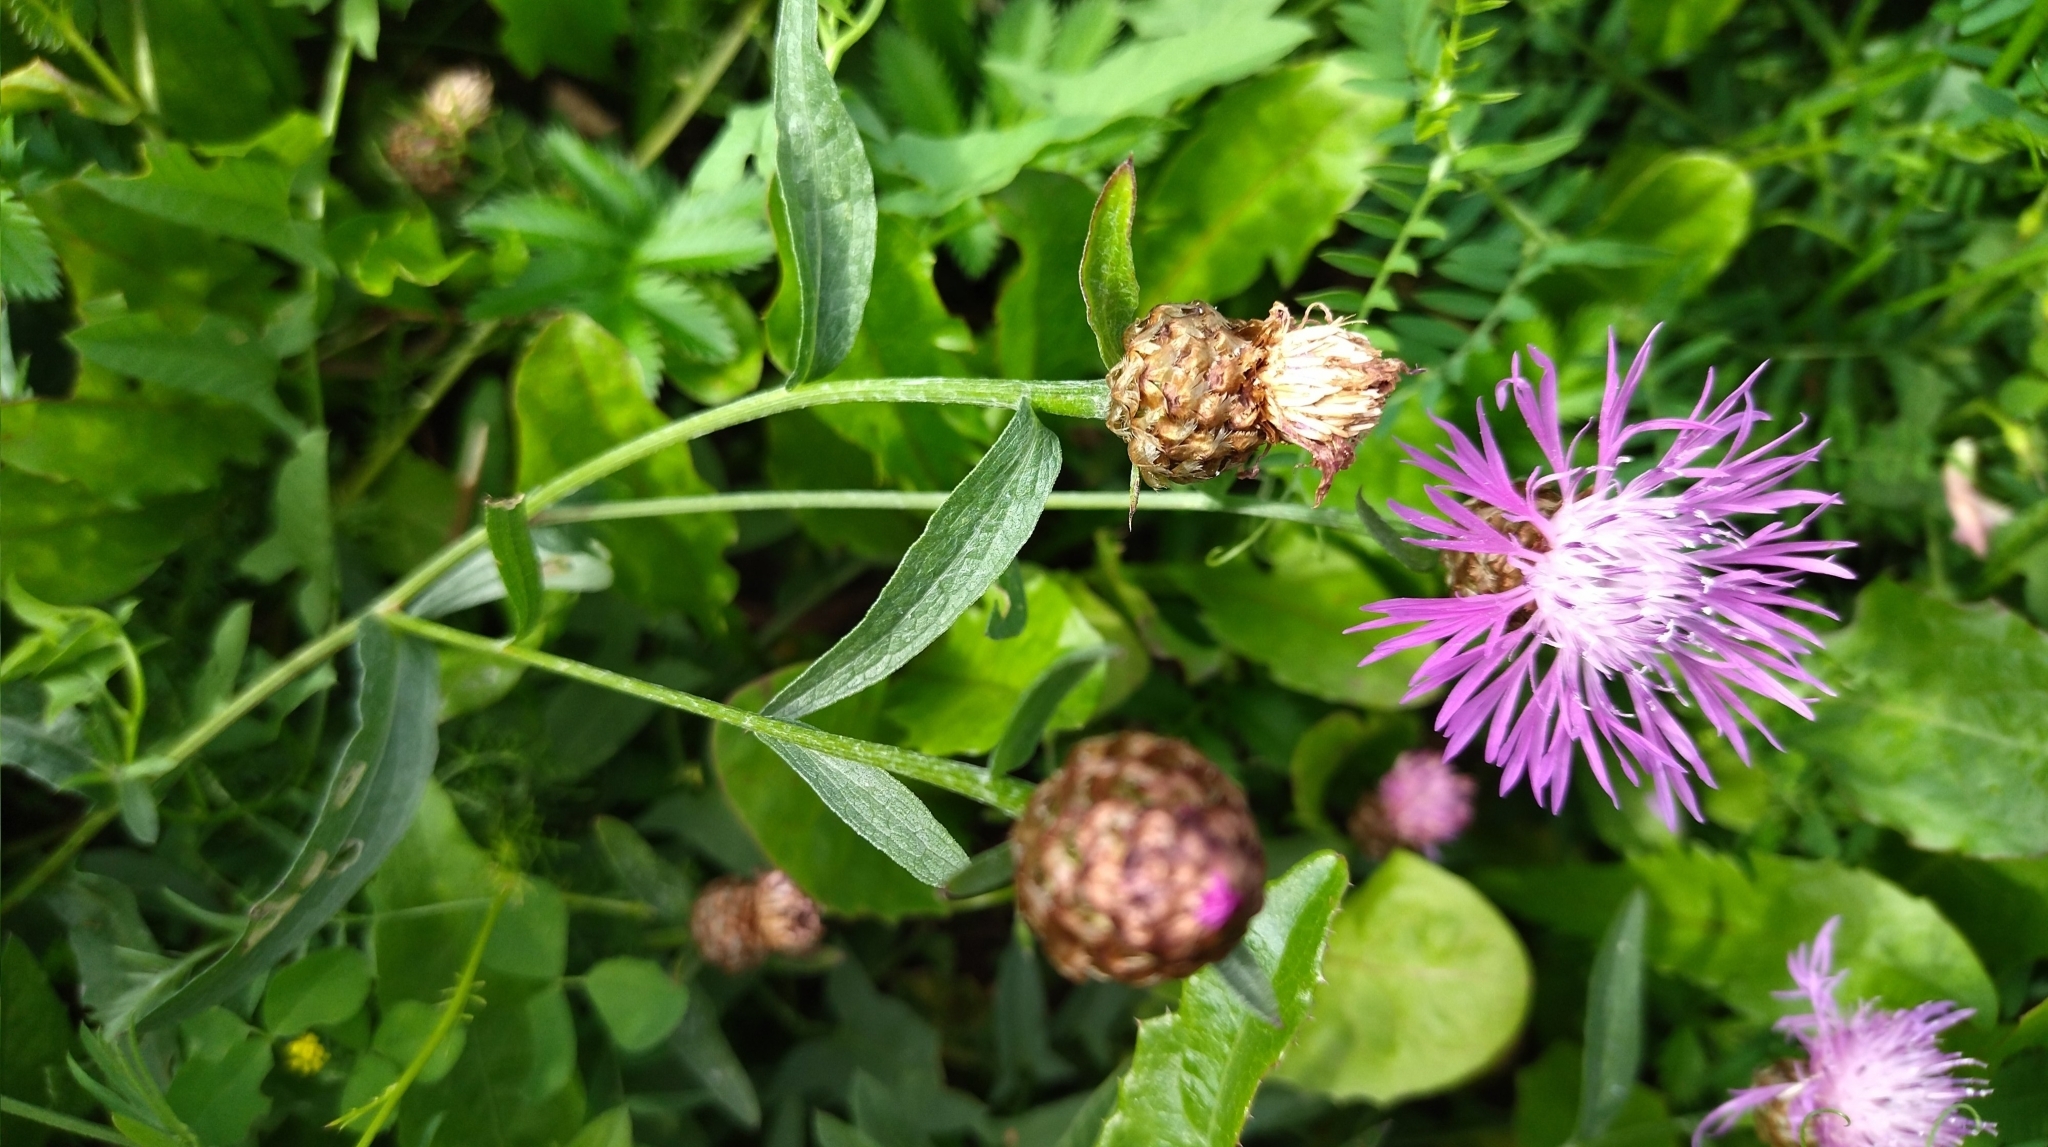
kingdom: Plantae
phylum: Tracheophyta
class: Magnoliopsida
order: Asterales
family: Asteraceae
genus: Centaurea
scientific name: Centaurea jacea
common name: Brown knapweed
